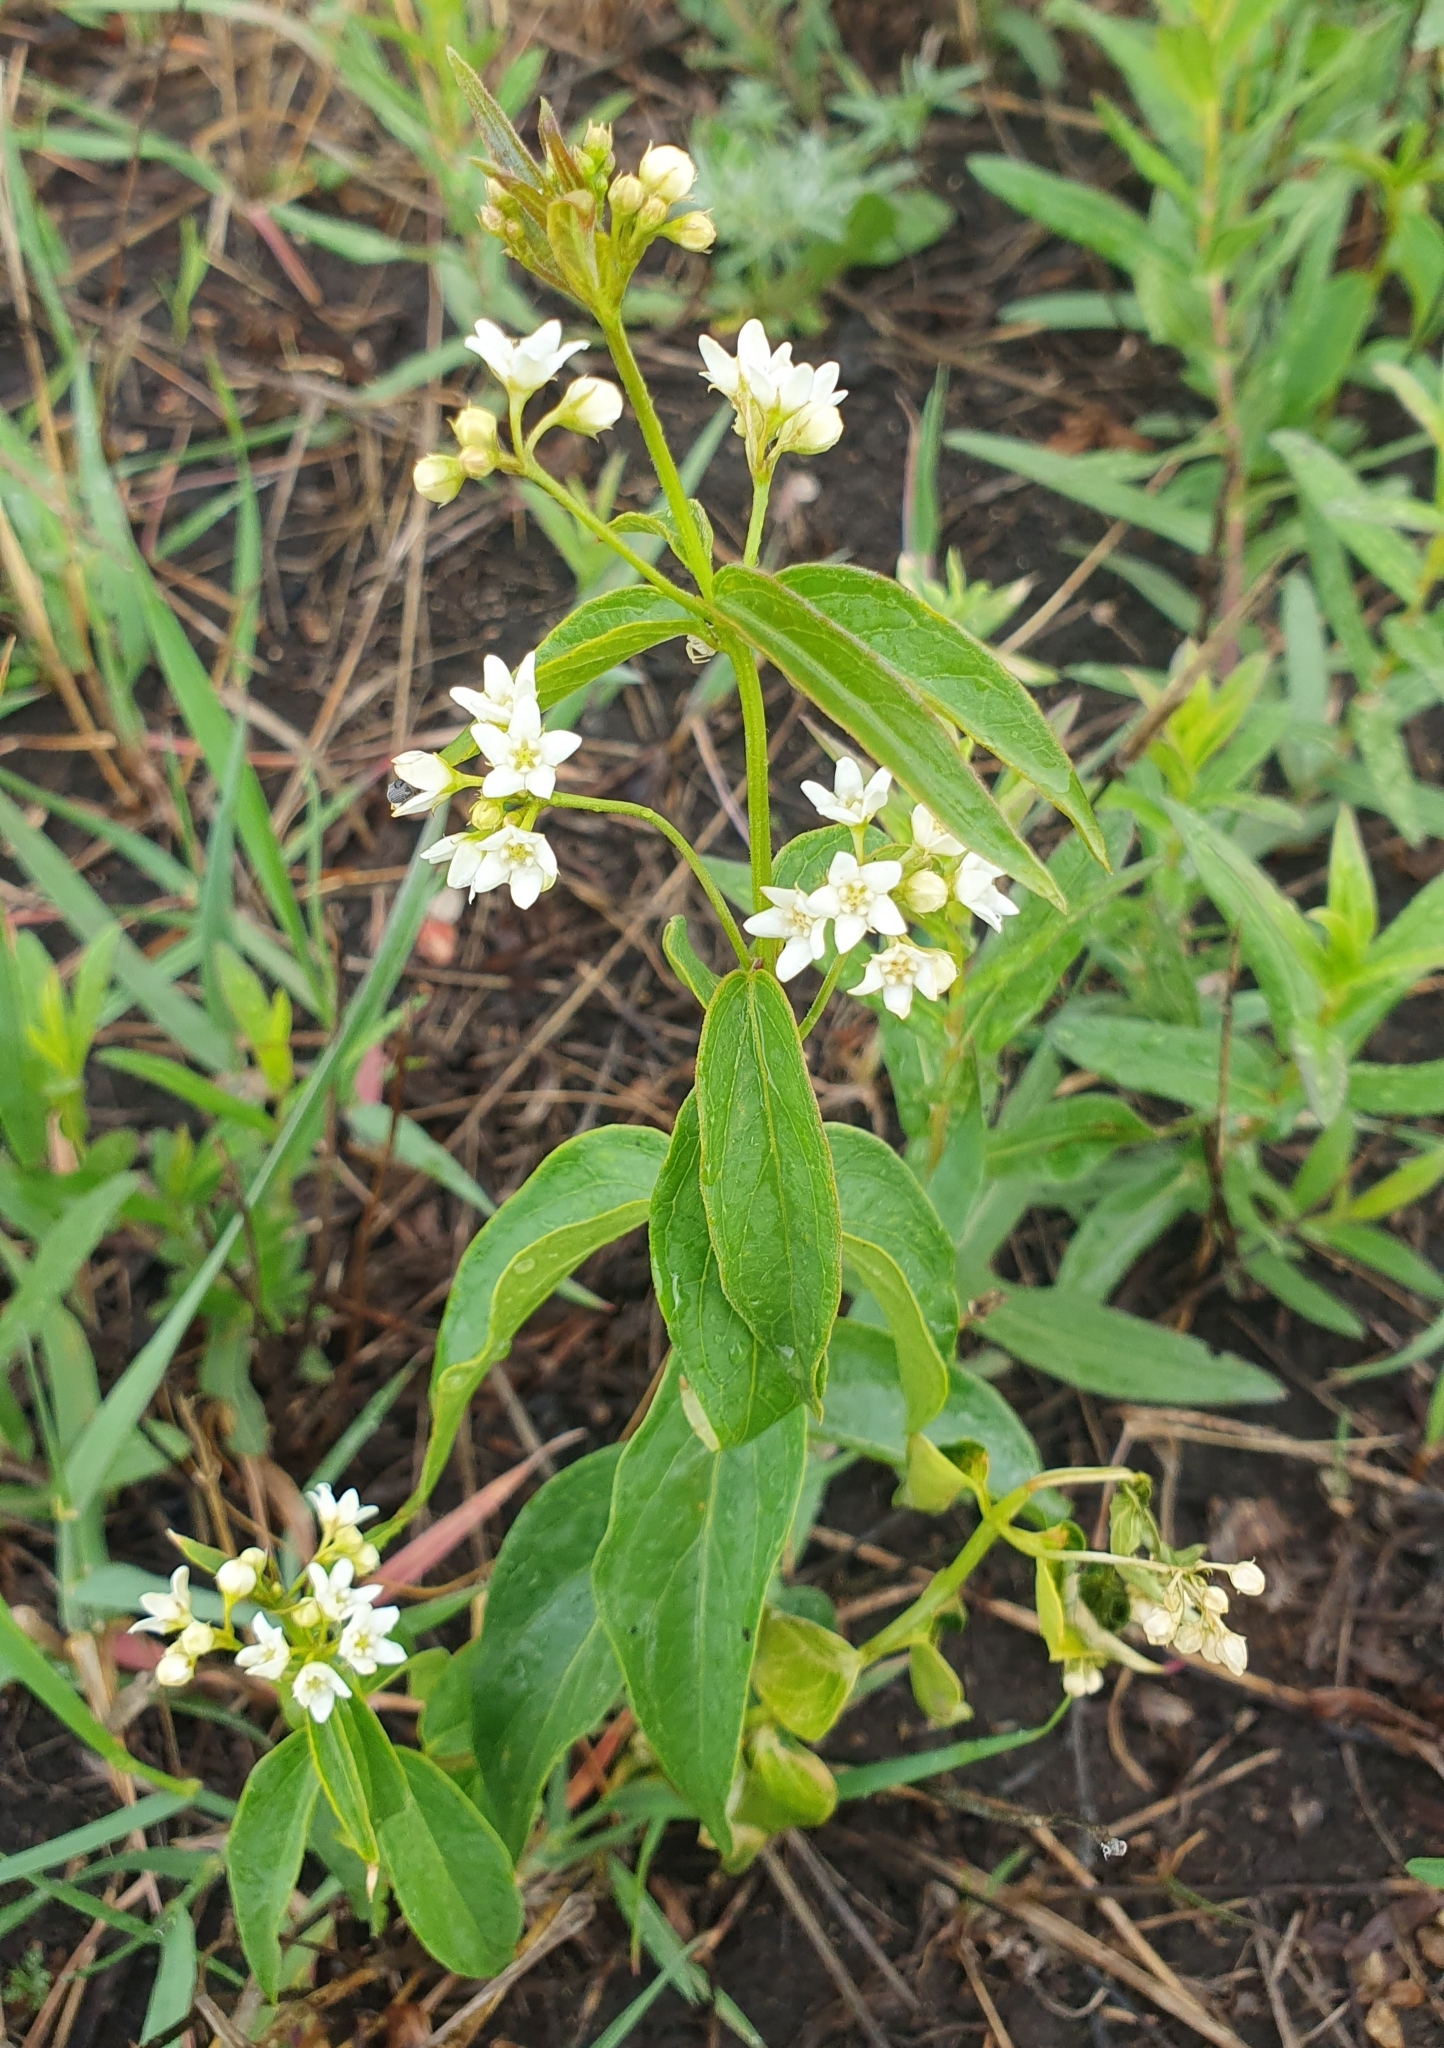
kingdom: Plantae
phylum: Tracheophyta
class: Magnoliopsida
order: Gentianales
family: Apocynaceae
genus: Vincetoxicum
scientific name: Vincetoxicum hirundinaria
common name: White swallowwort
